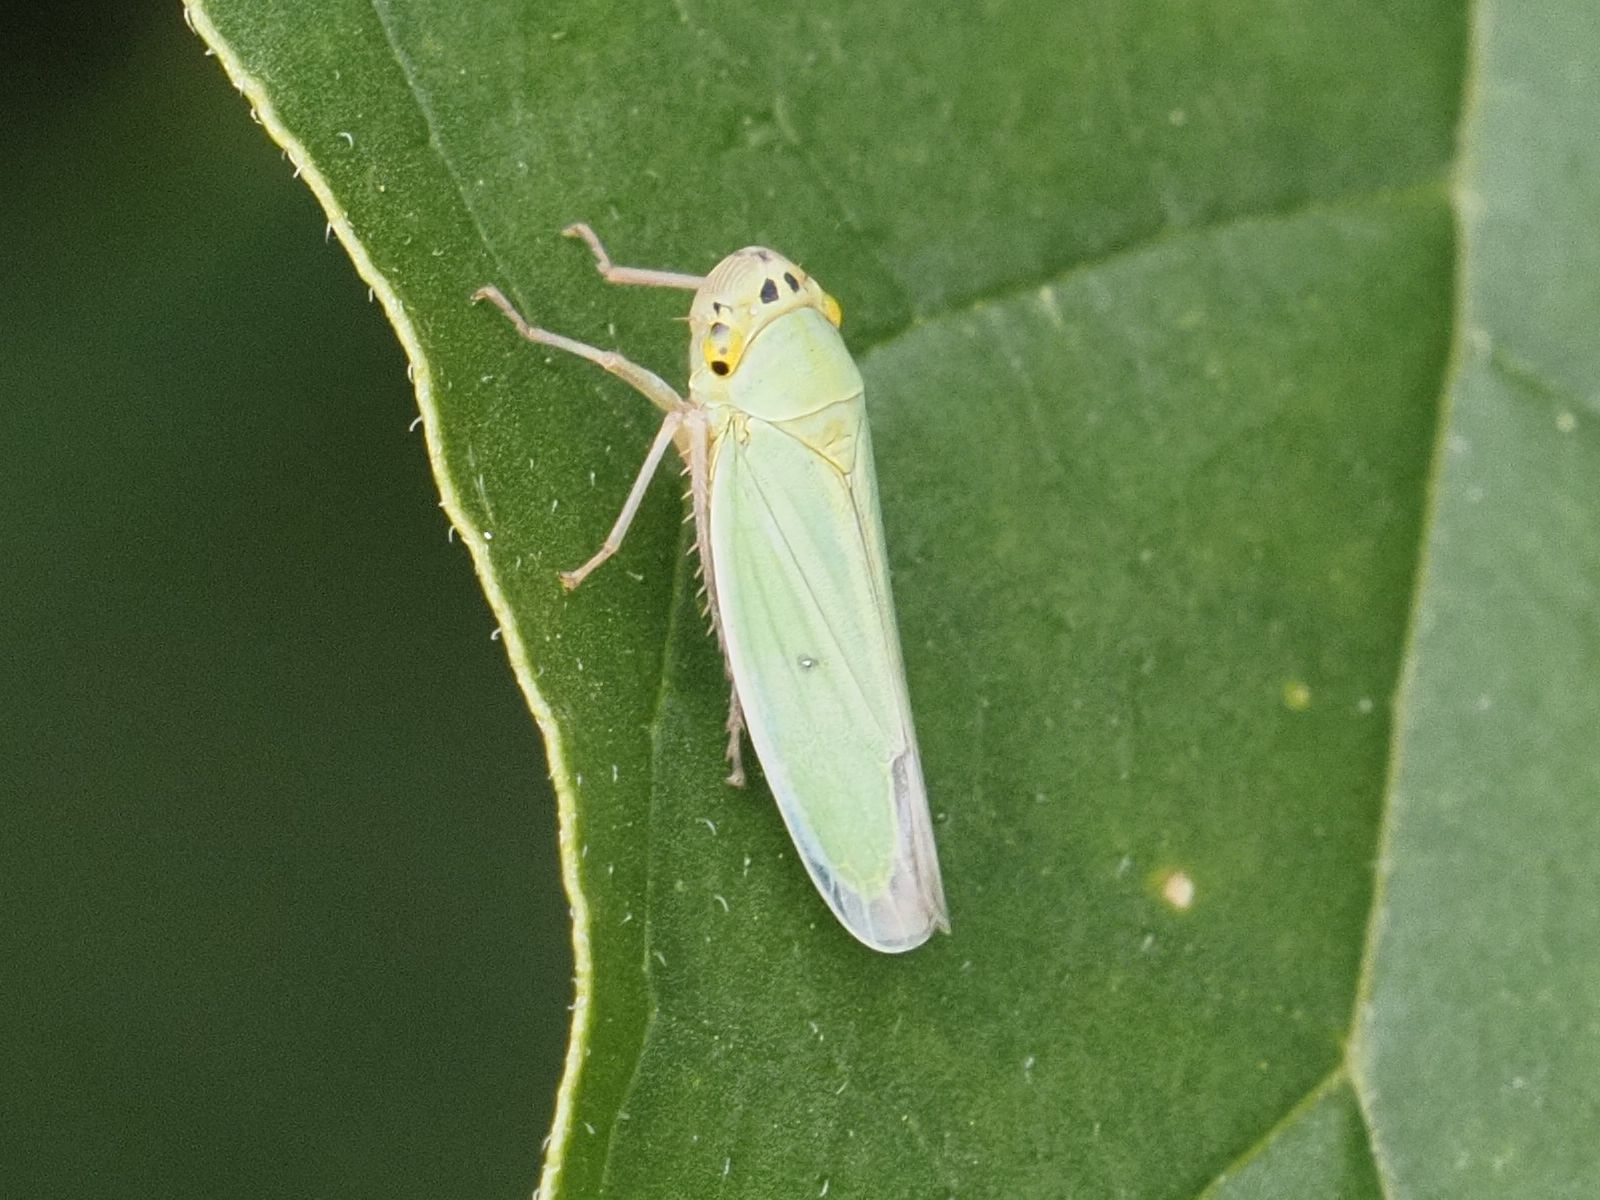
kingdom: Animalia
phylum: Arthropoda
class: Insecta
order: Hemiptera
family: Cicadellidae
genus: Cicadella
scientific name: Cicadella viridis
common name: Leafhopper
